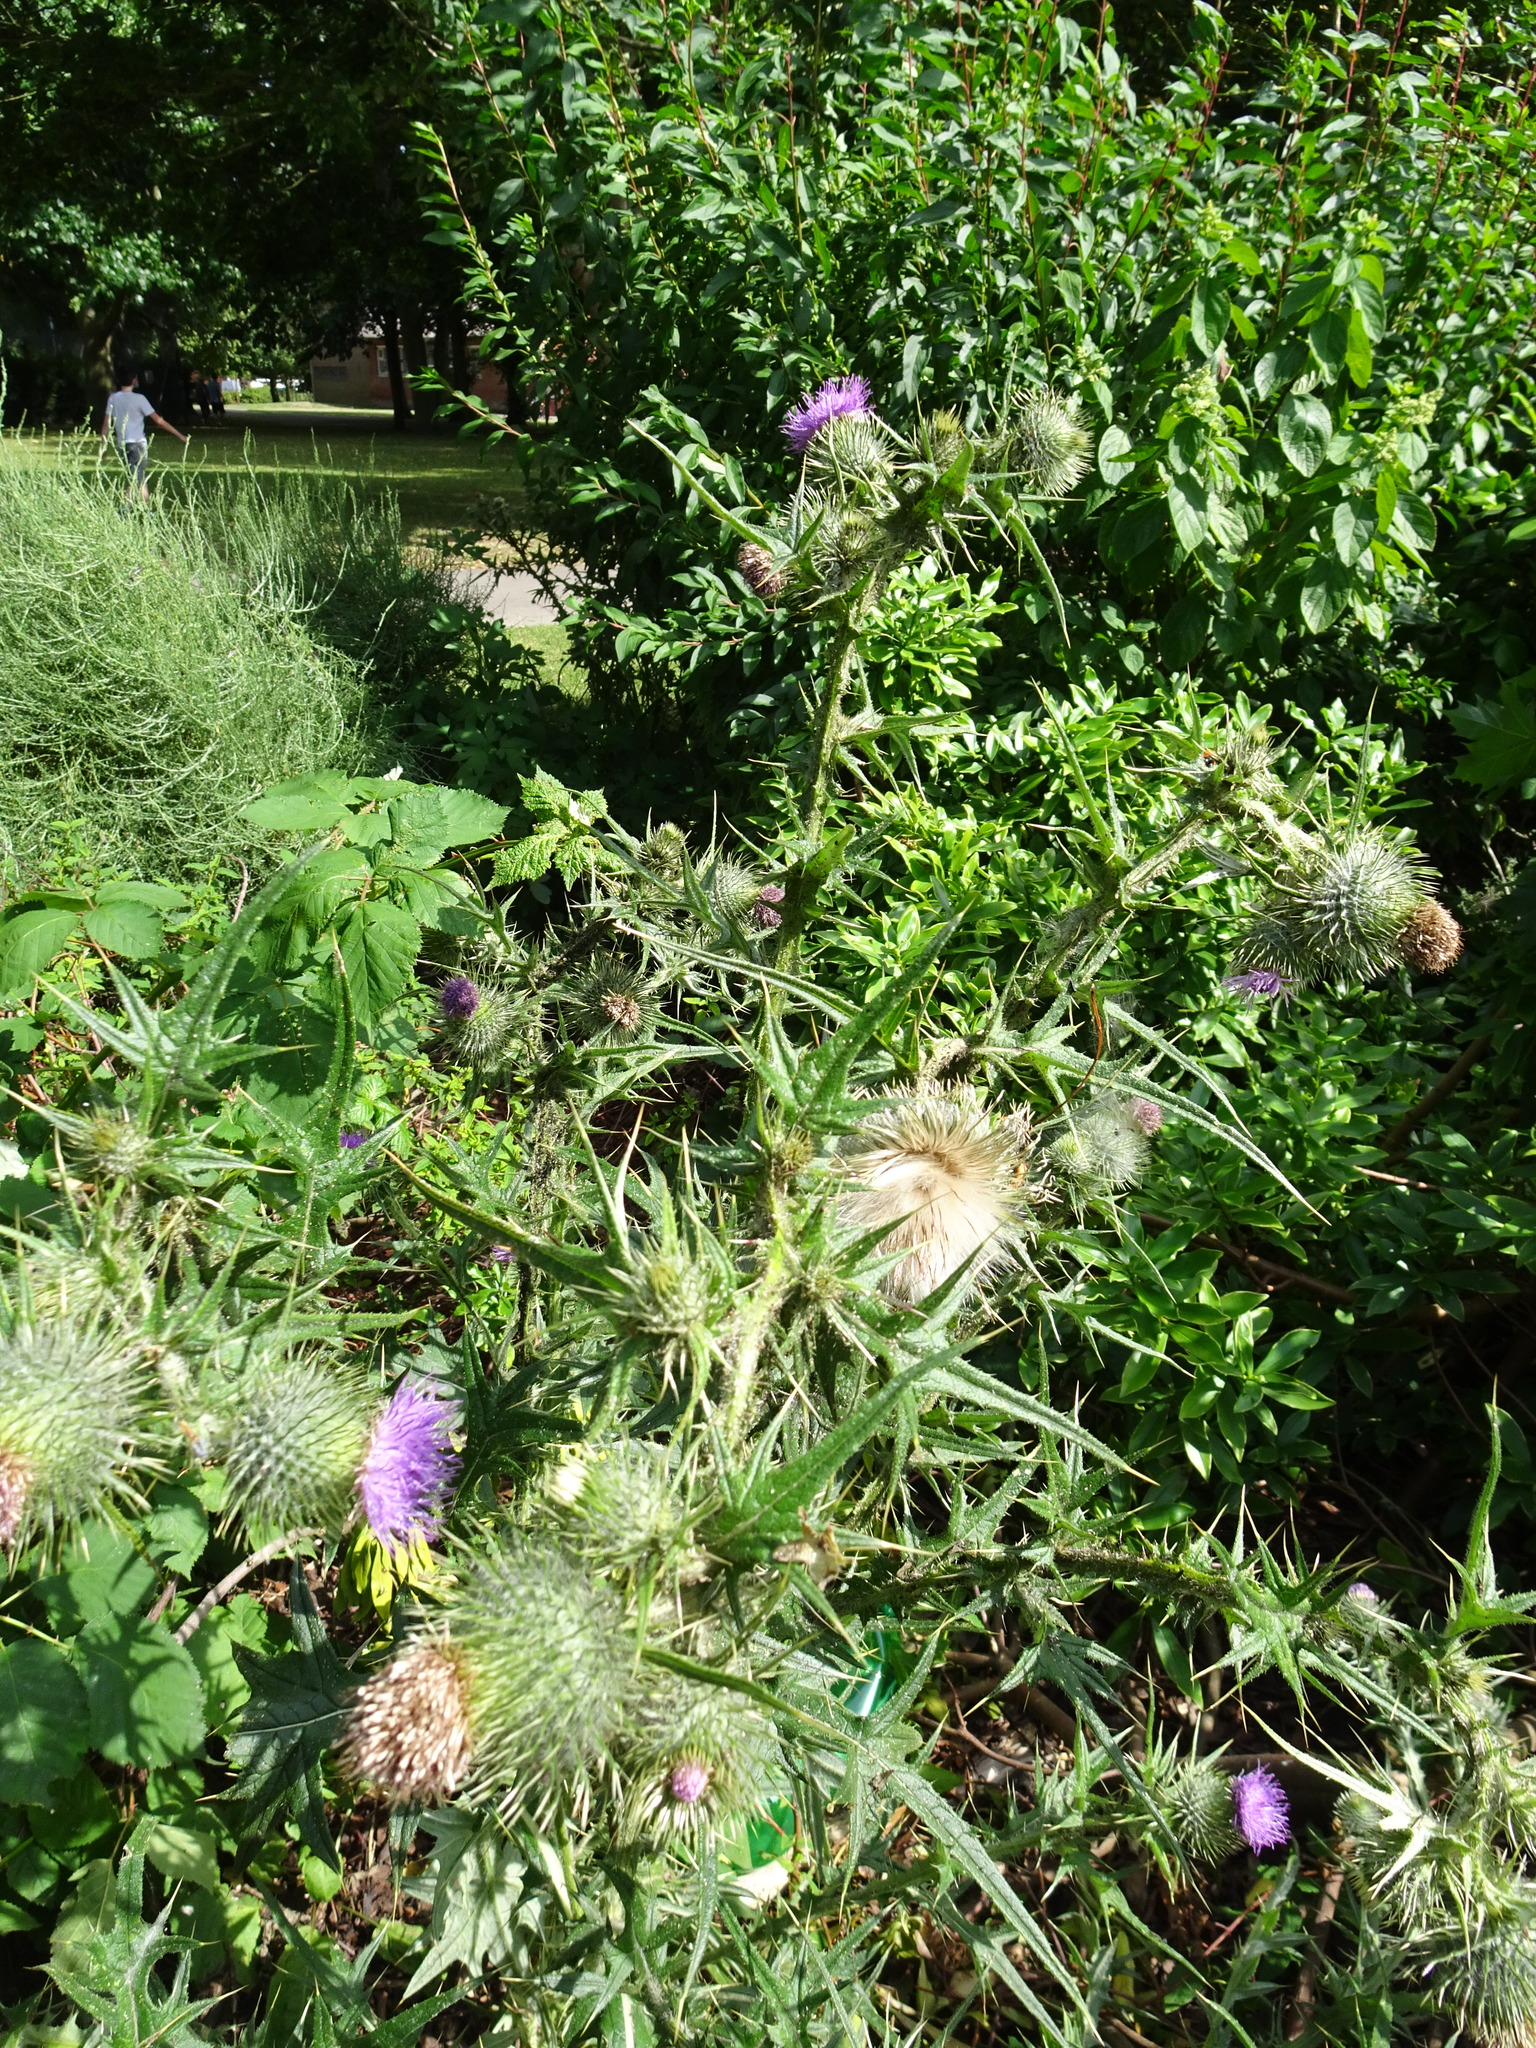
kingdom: Plantae
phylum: Tracheophyta
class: Magnoliopsida
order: Asterales
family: Asteraceae
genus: Cirsium
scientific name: Cirsium vulgare
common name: Bull thistle
